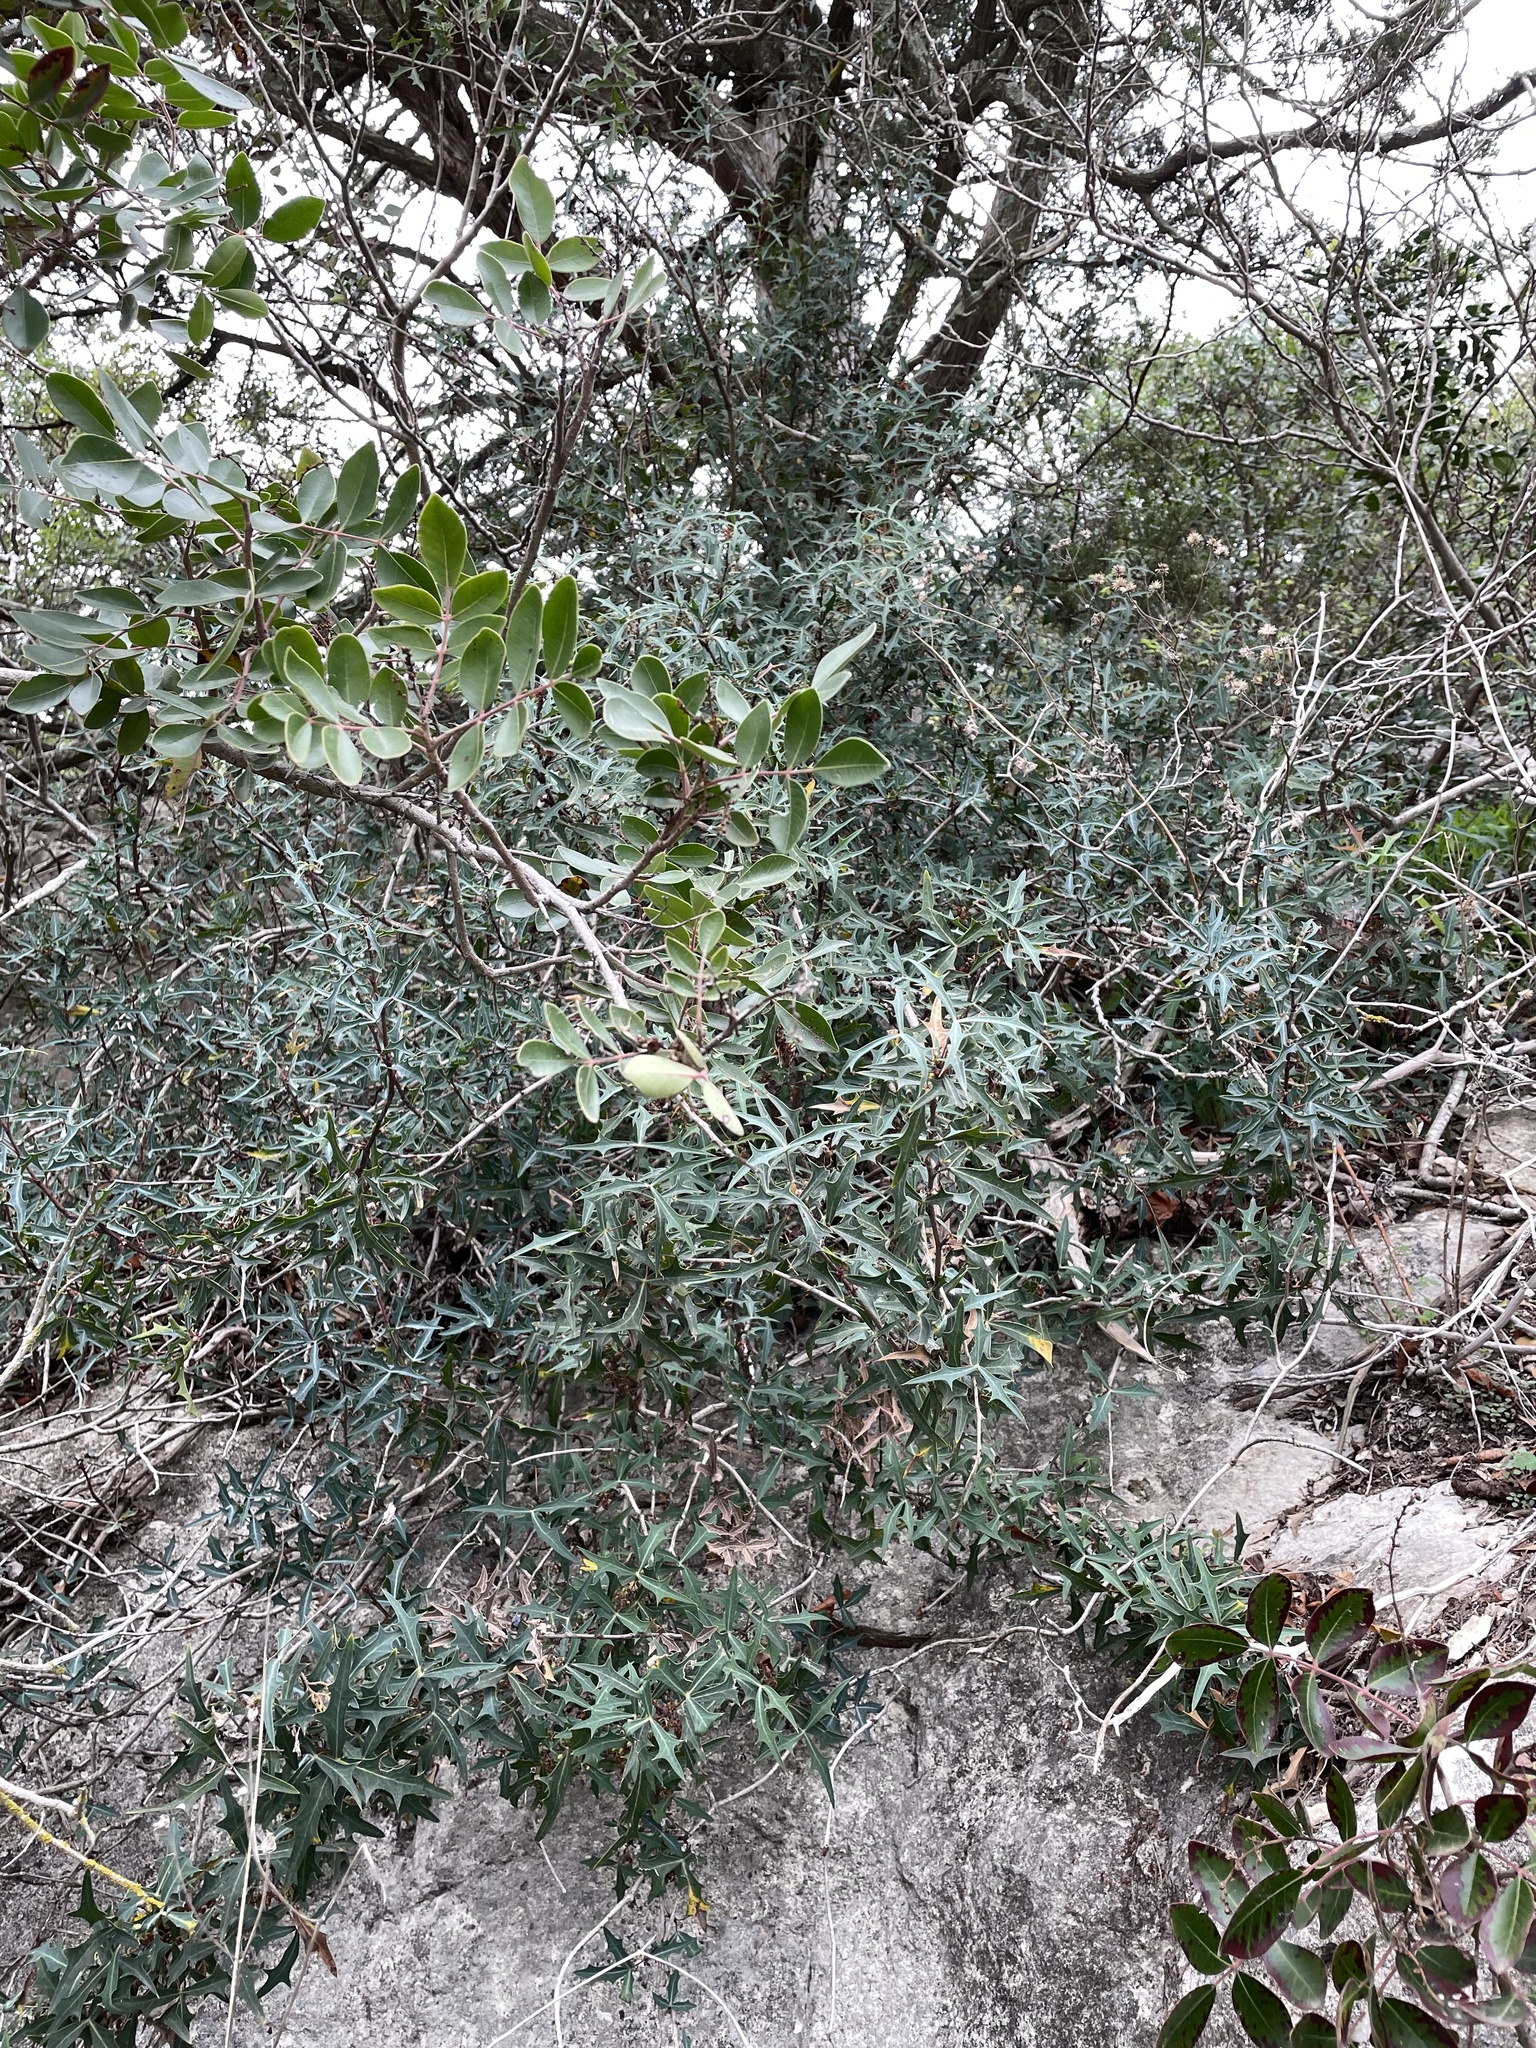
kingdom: Plantae
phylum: Tracheophyta
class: Magnoliopsida
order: Ranunculales
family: Berberidaceae
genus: Alloberberis
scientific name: Alloberberis trifoliolata
